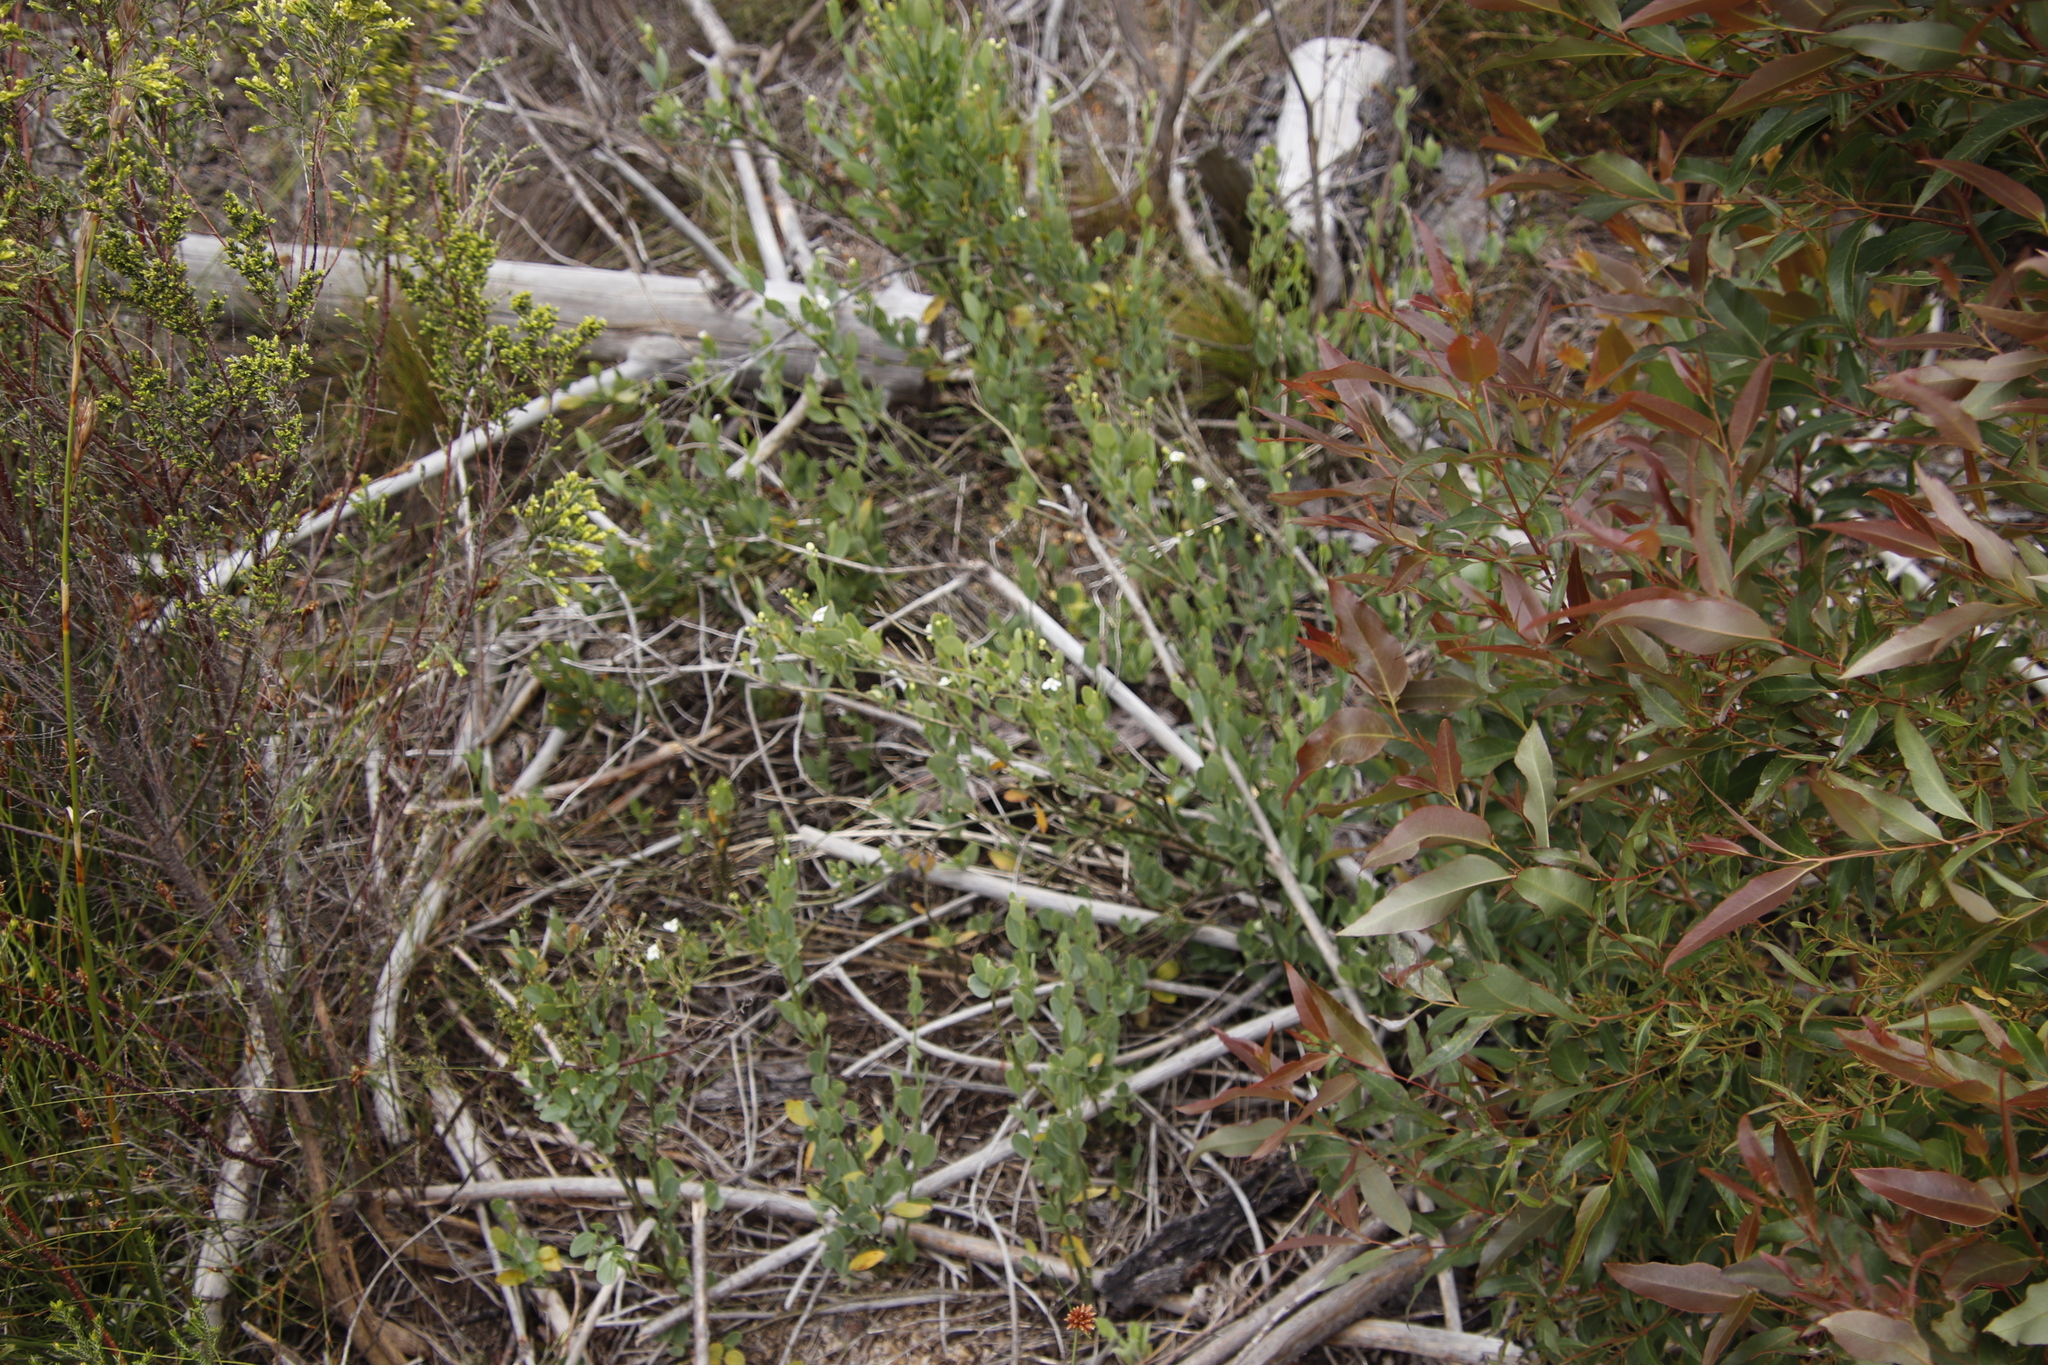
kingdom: Plantae
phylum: Tracheophyta
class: Magnoliopsida
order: Solanales
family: Montiniaceae
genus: Montinia
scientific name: Montinia caryophyllacea
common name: Wild clove-bush
